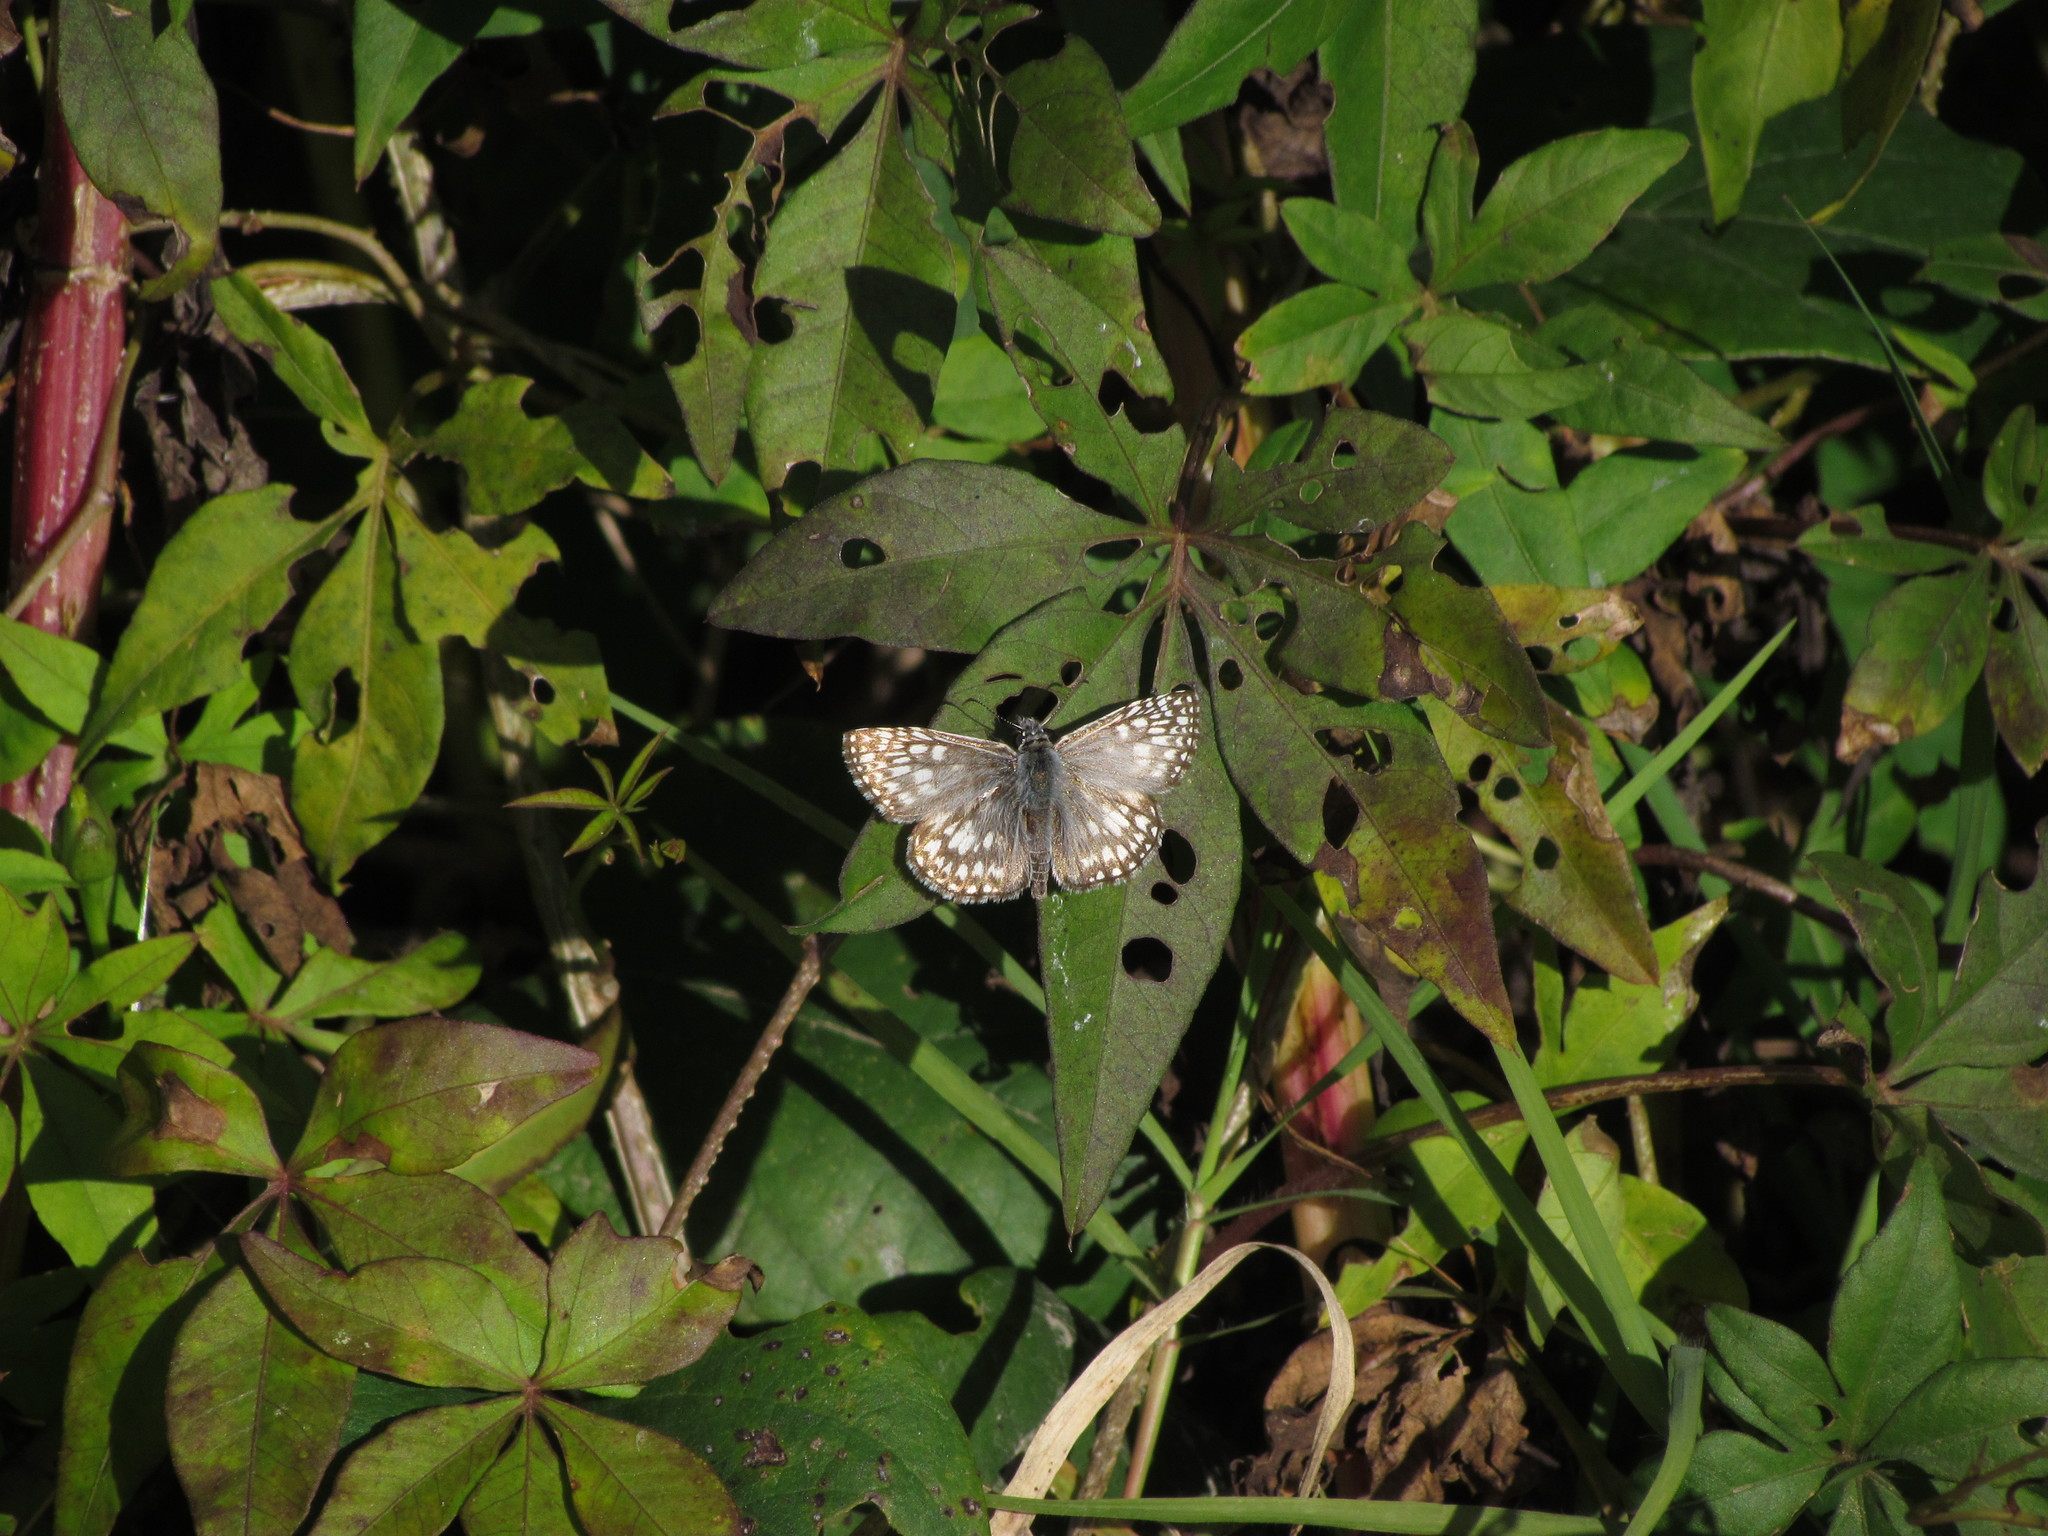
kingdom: Animalia
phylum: Arthropoda
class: Insecta
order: Lepidoptera
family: Hesperiidae
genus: Pyrgus
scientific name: Pyrgus oileus
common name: Tropical checkered-skipper
